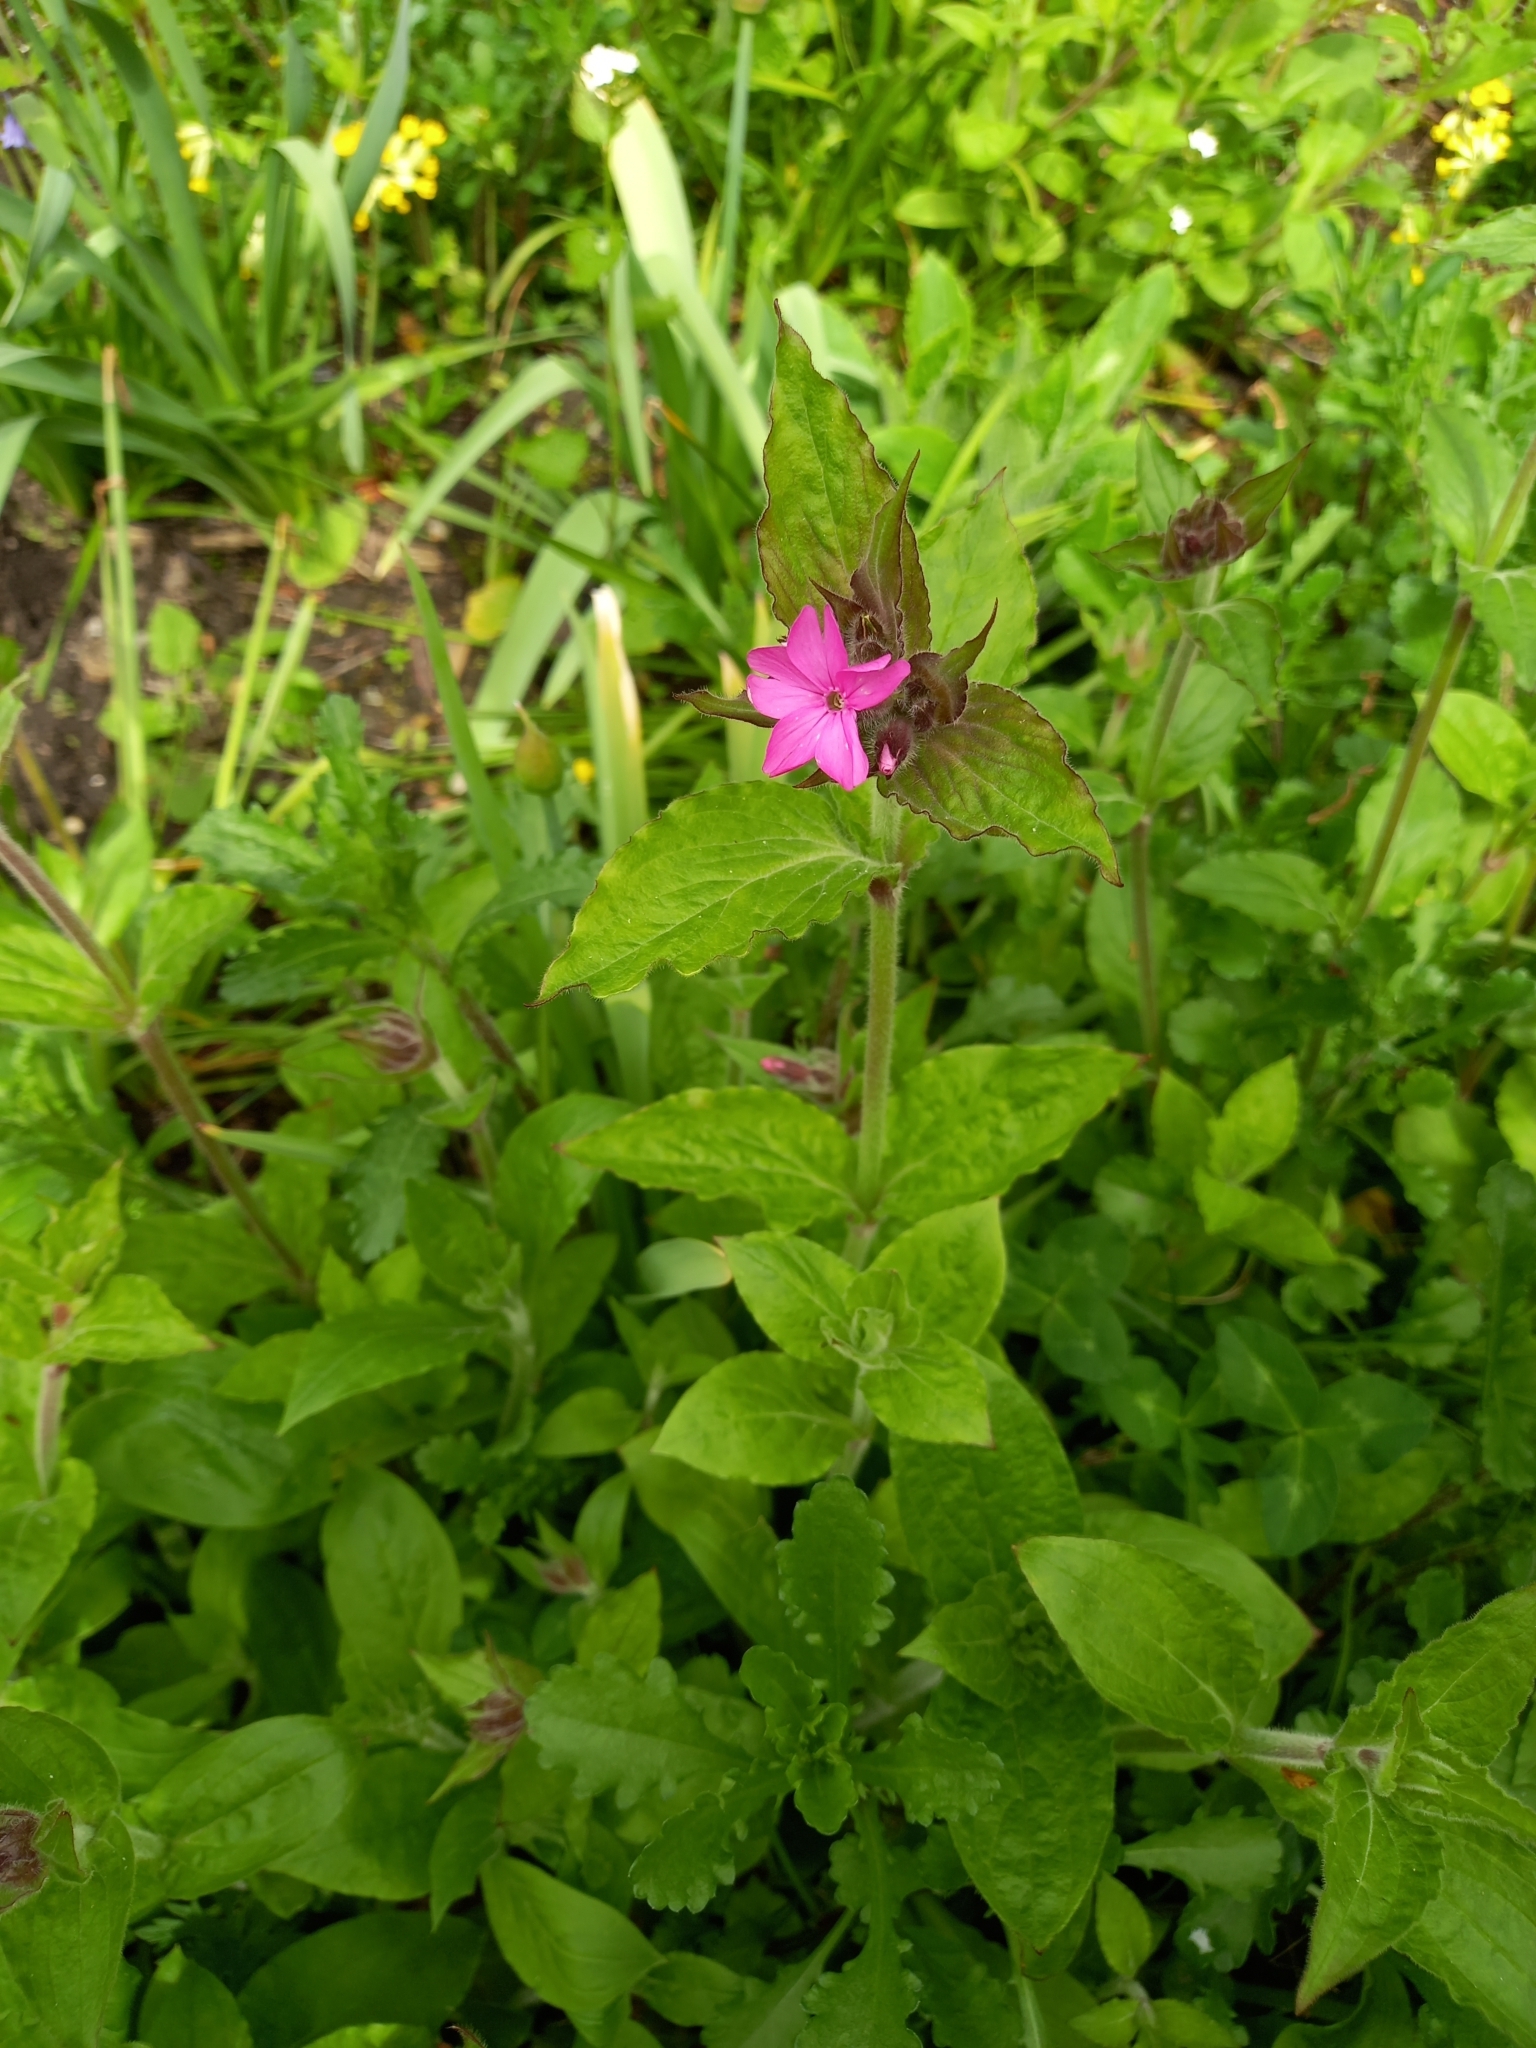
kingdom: Plantae
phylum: Tracheophyta
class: Magnoliopsida
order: Caryophyllales
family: Caryophyllaceae
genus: Silene
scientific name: Silene dioica
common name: Red campion
